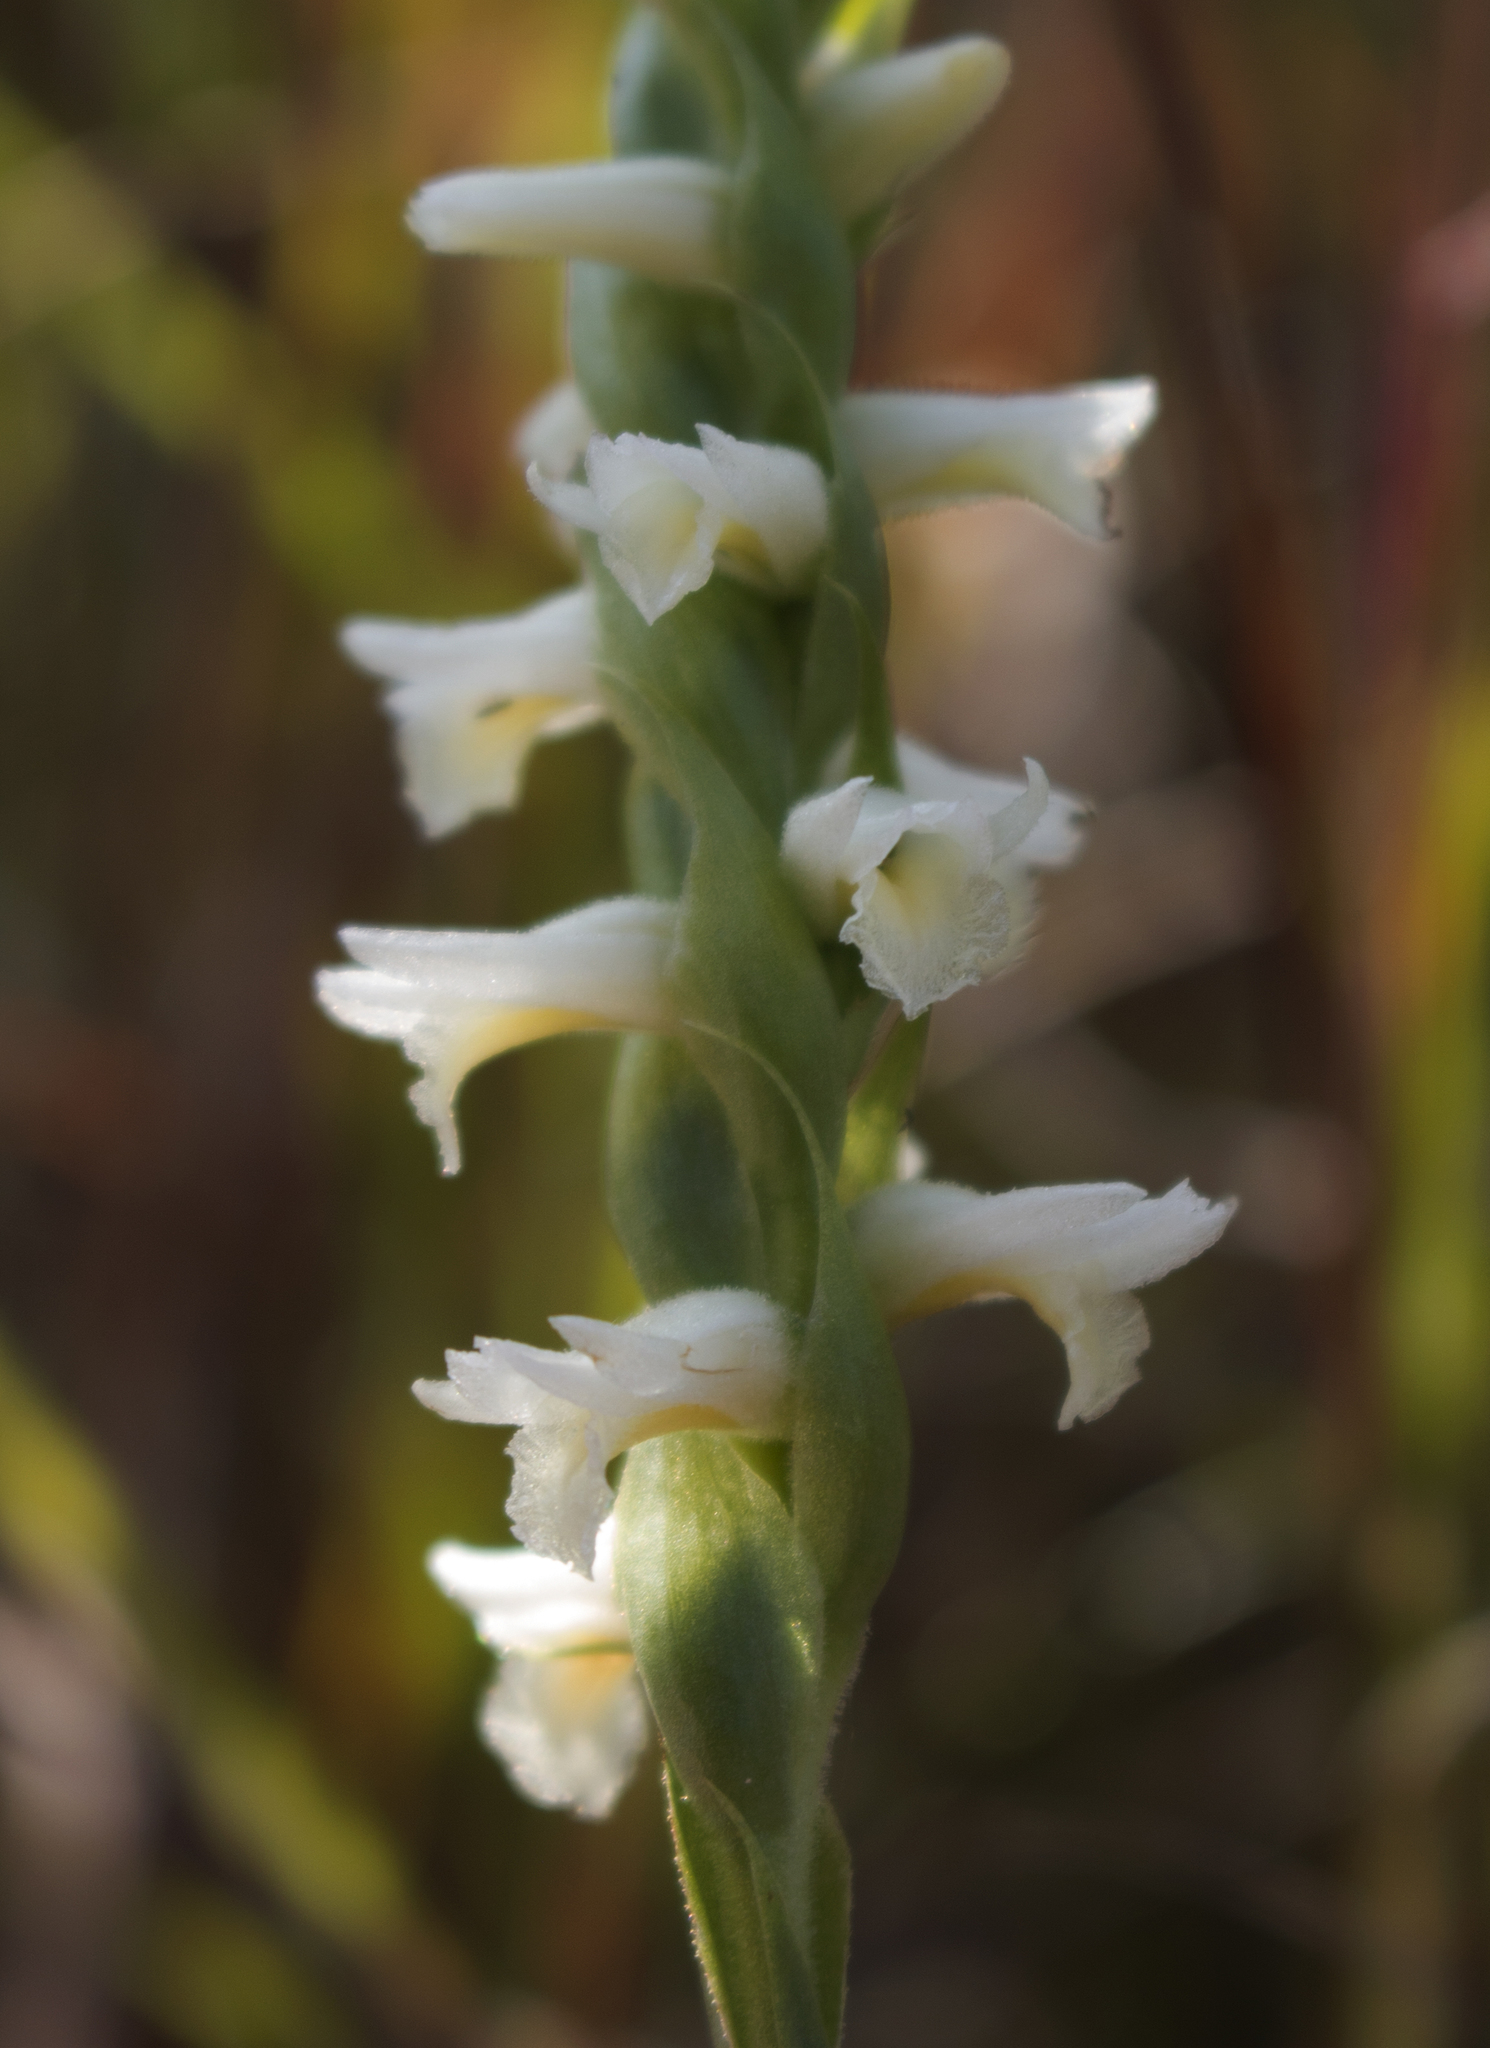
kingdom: Plantae
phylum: Tracheophyta
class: Liliopsida
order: Asparagales
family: Orchidaceae
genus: Spiranthes
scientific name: Spiranthes magnicamporum
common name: Great plains ladies'-tresses
